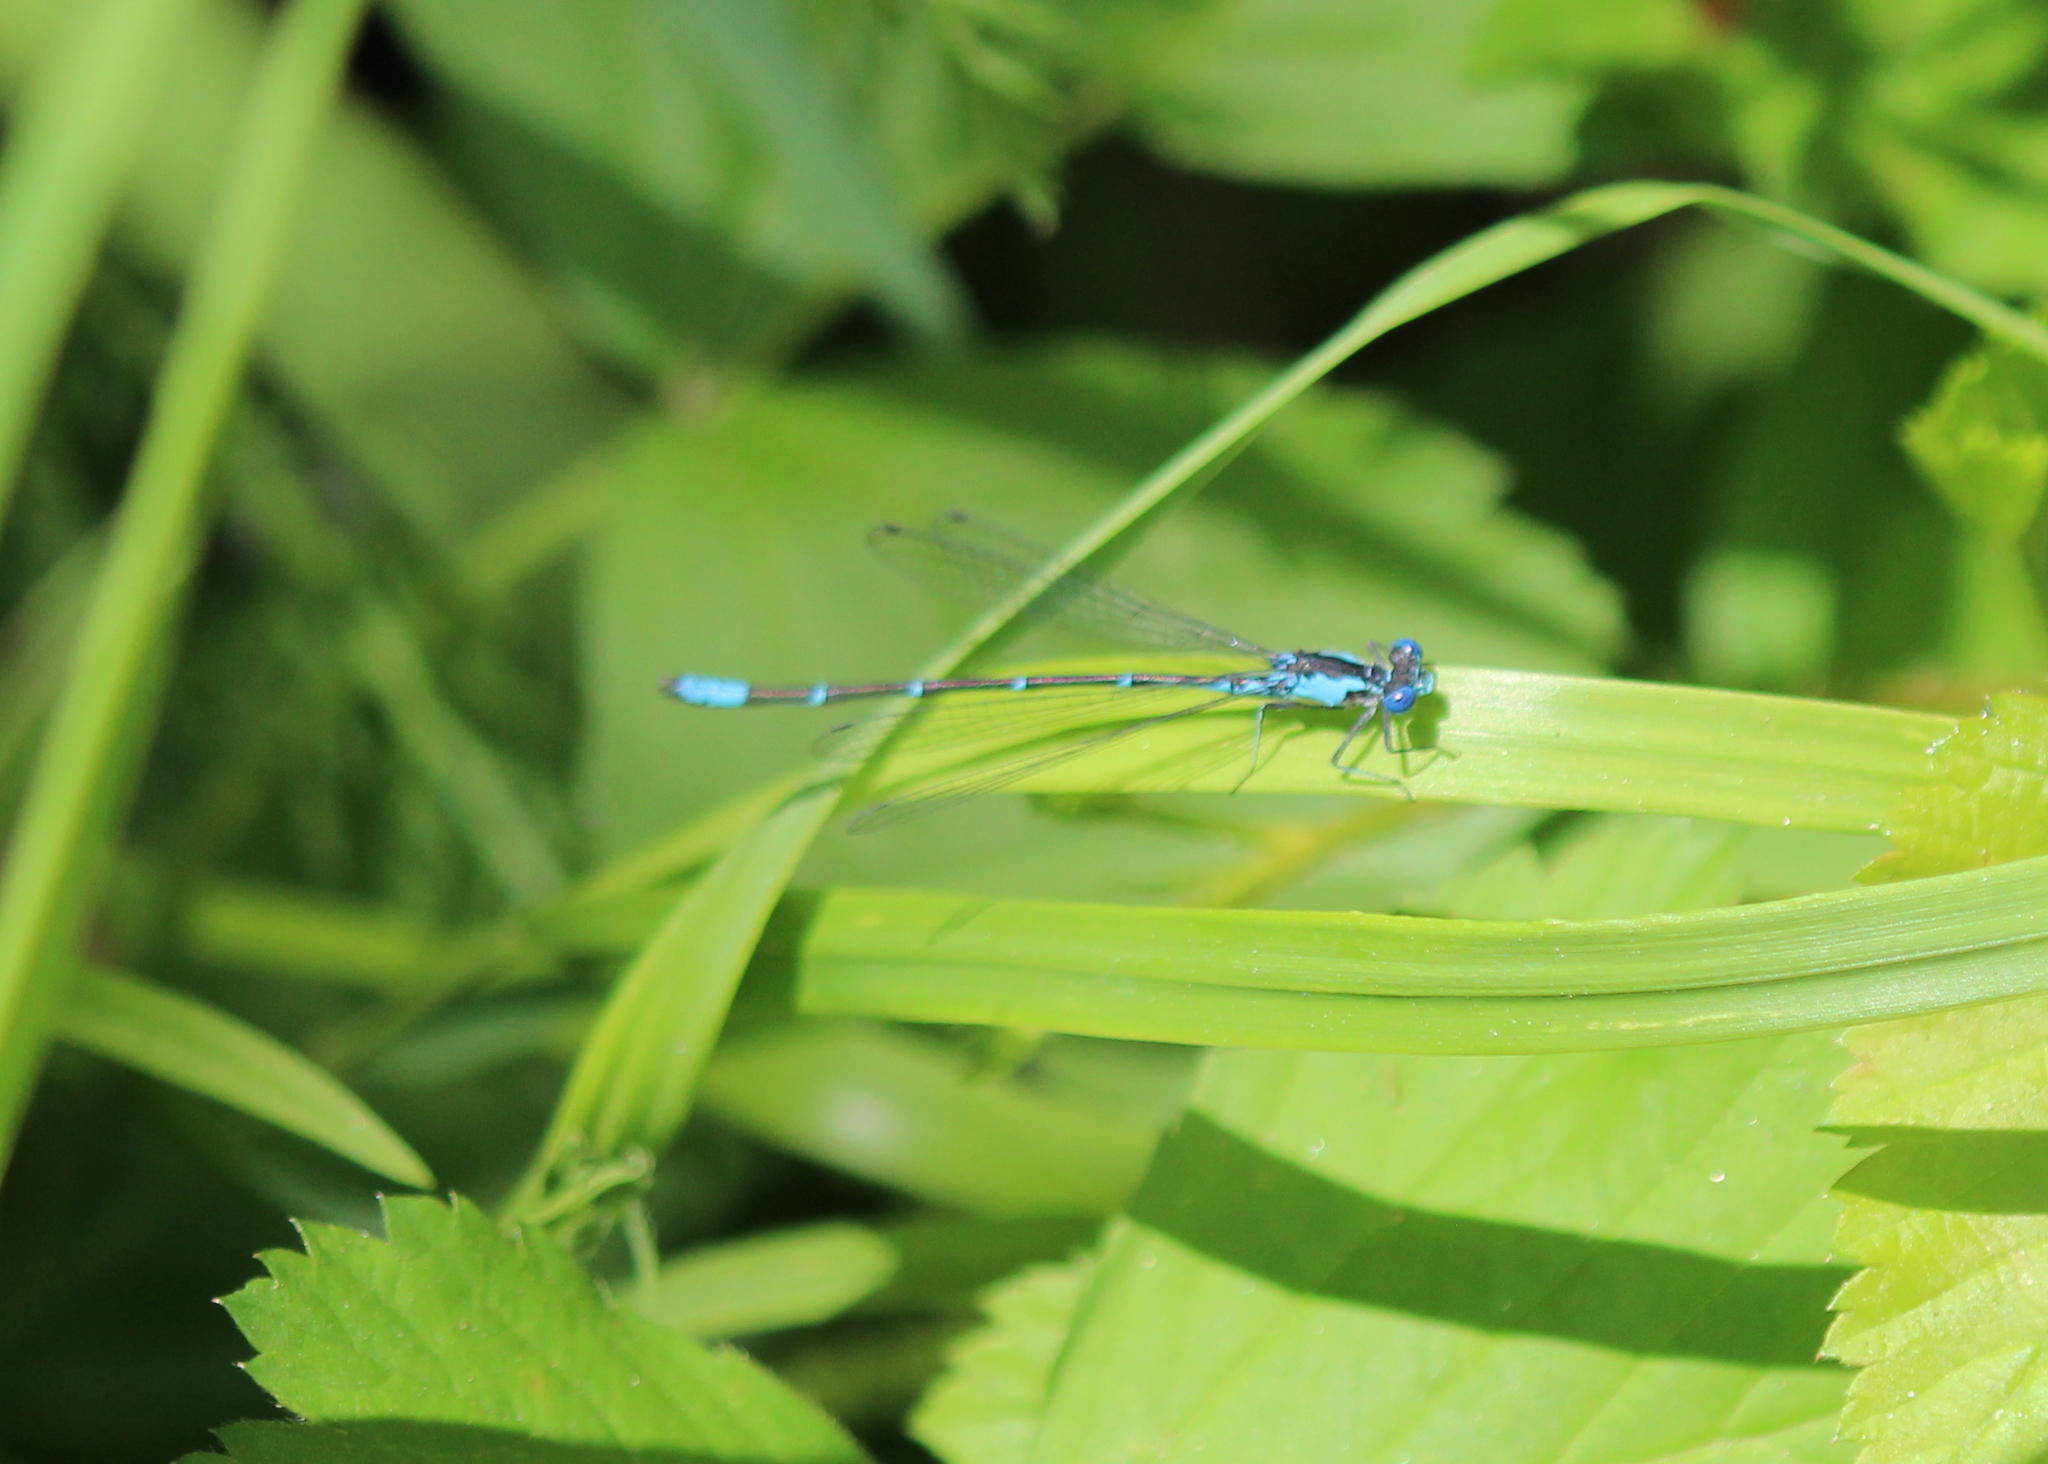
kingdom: Animalia
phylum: Arthropoda
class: Insecta
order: Odonata
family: Coenagrionidae
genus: Chromagrion
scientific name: Chromagrion conditum
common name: Aurora damsel
